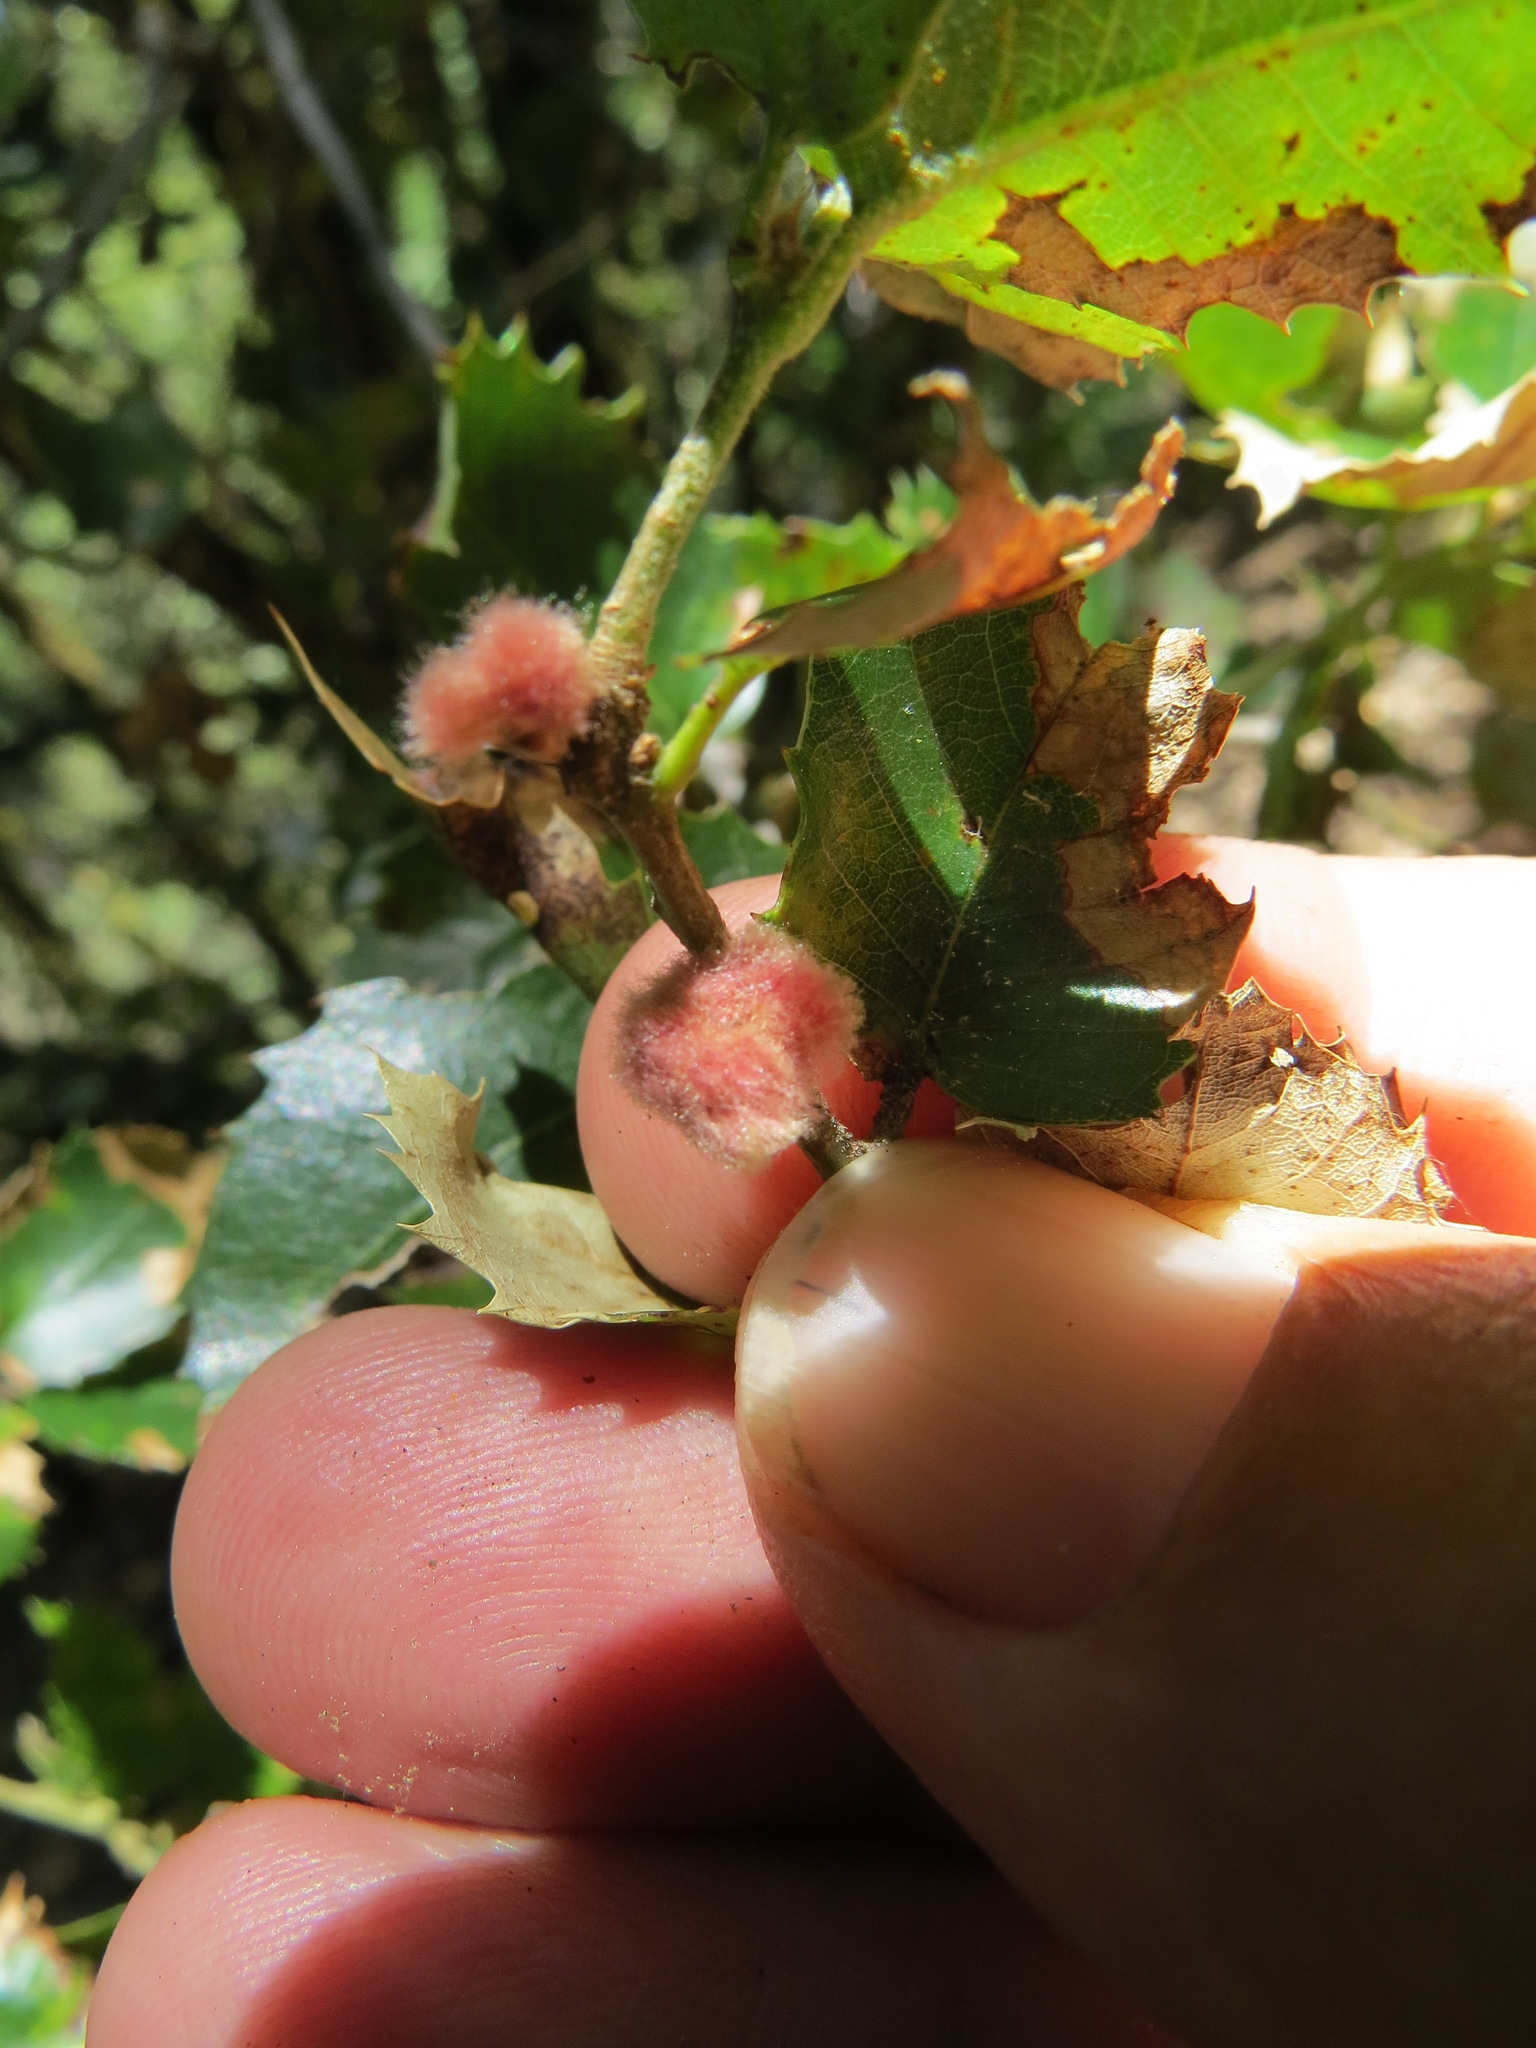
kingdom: Animalia
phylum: Arthropoda
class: Insecta
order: Hymenoptera
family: Cynipidae
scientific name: Cynipidae
